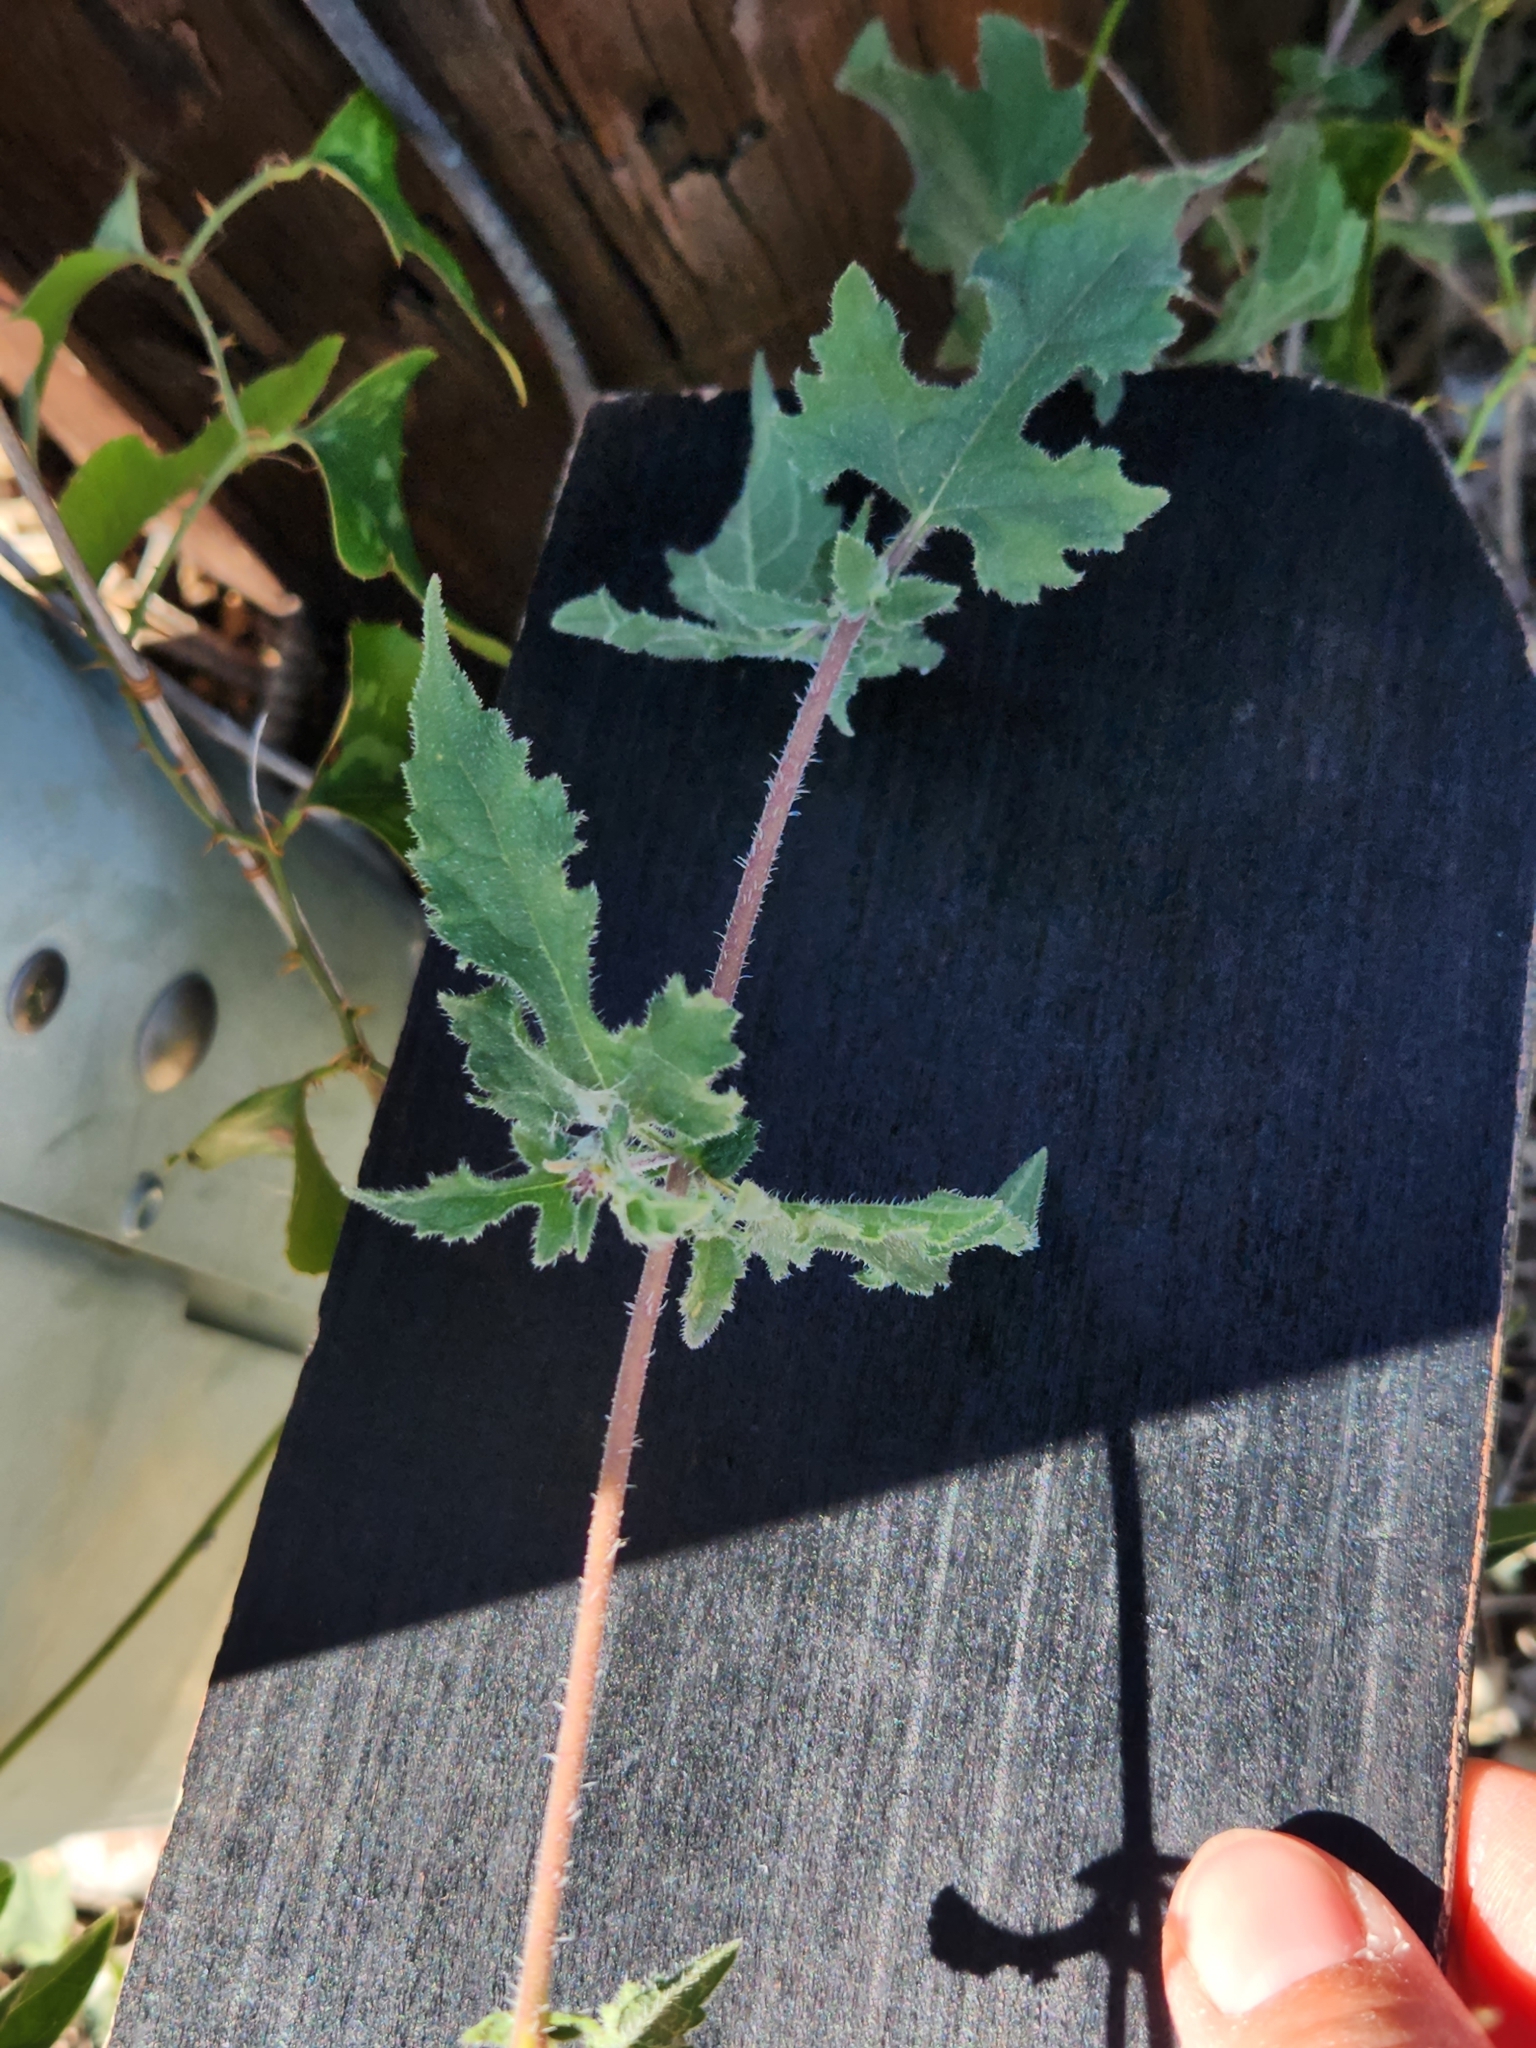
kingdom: Plantae
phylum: Tracheophyta
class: Magnoliopsida
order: Asterales
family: Asteraceae
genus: Simsia
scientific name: Simsia calva
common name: Awnless bush-sunflower
